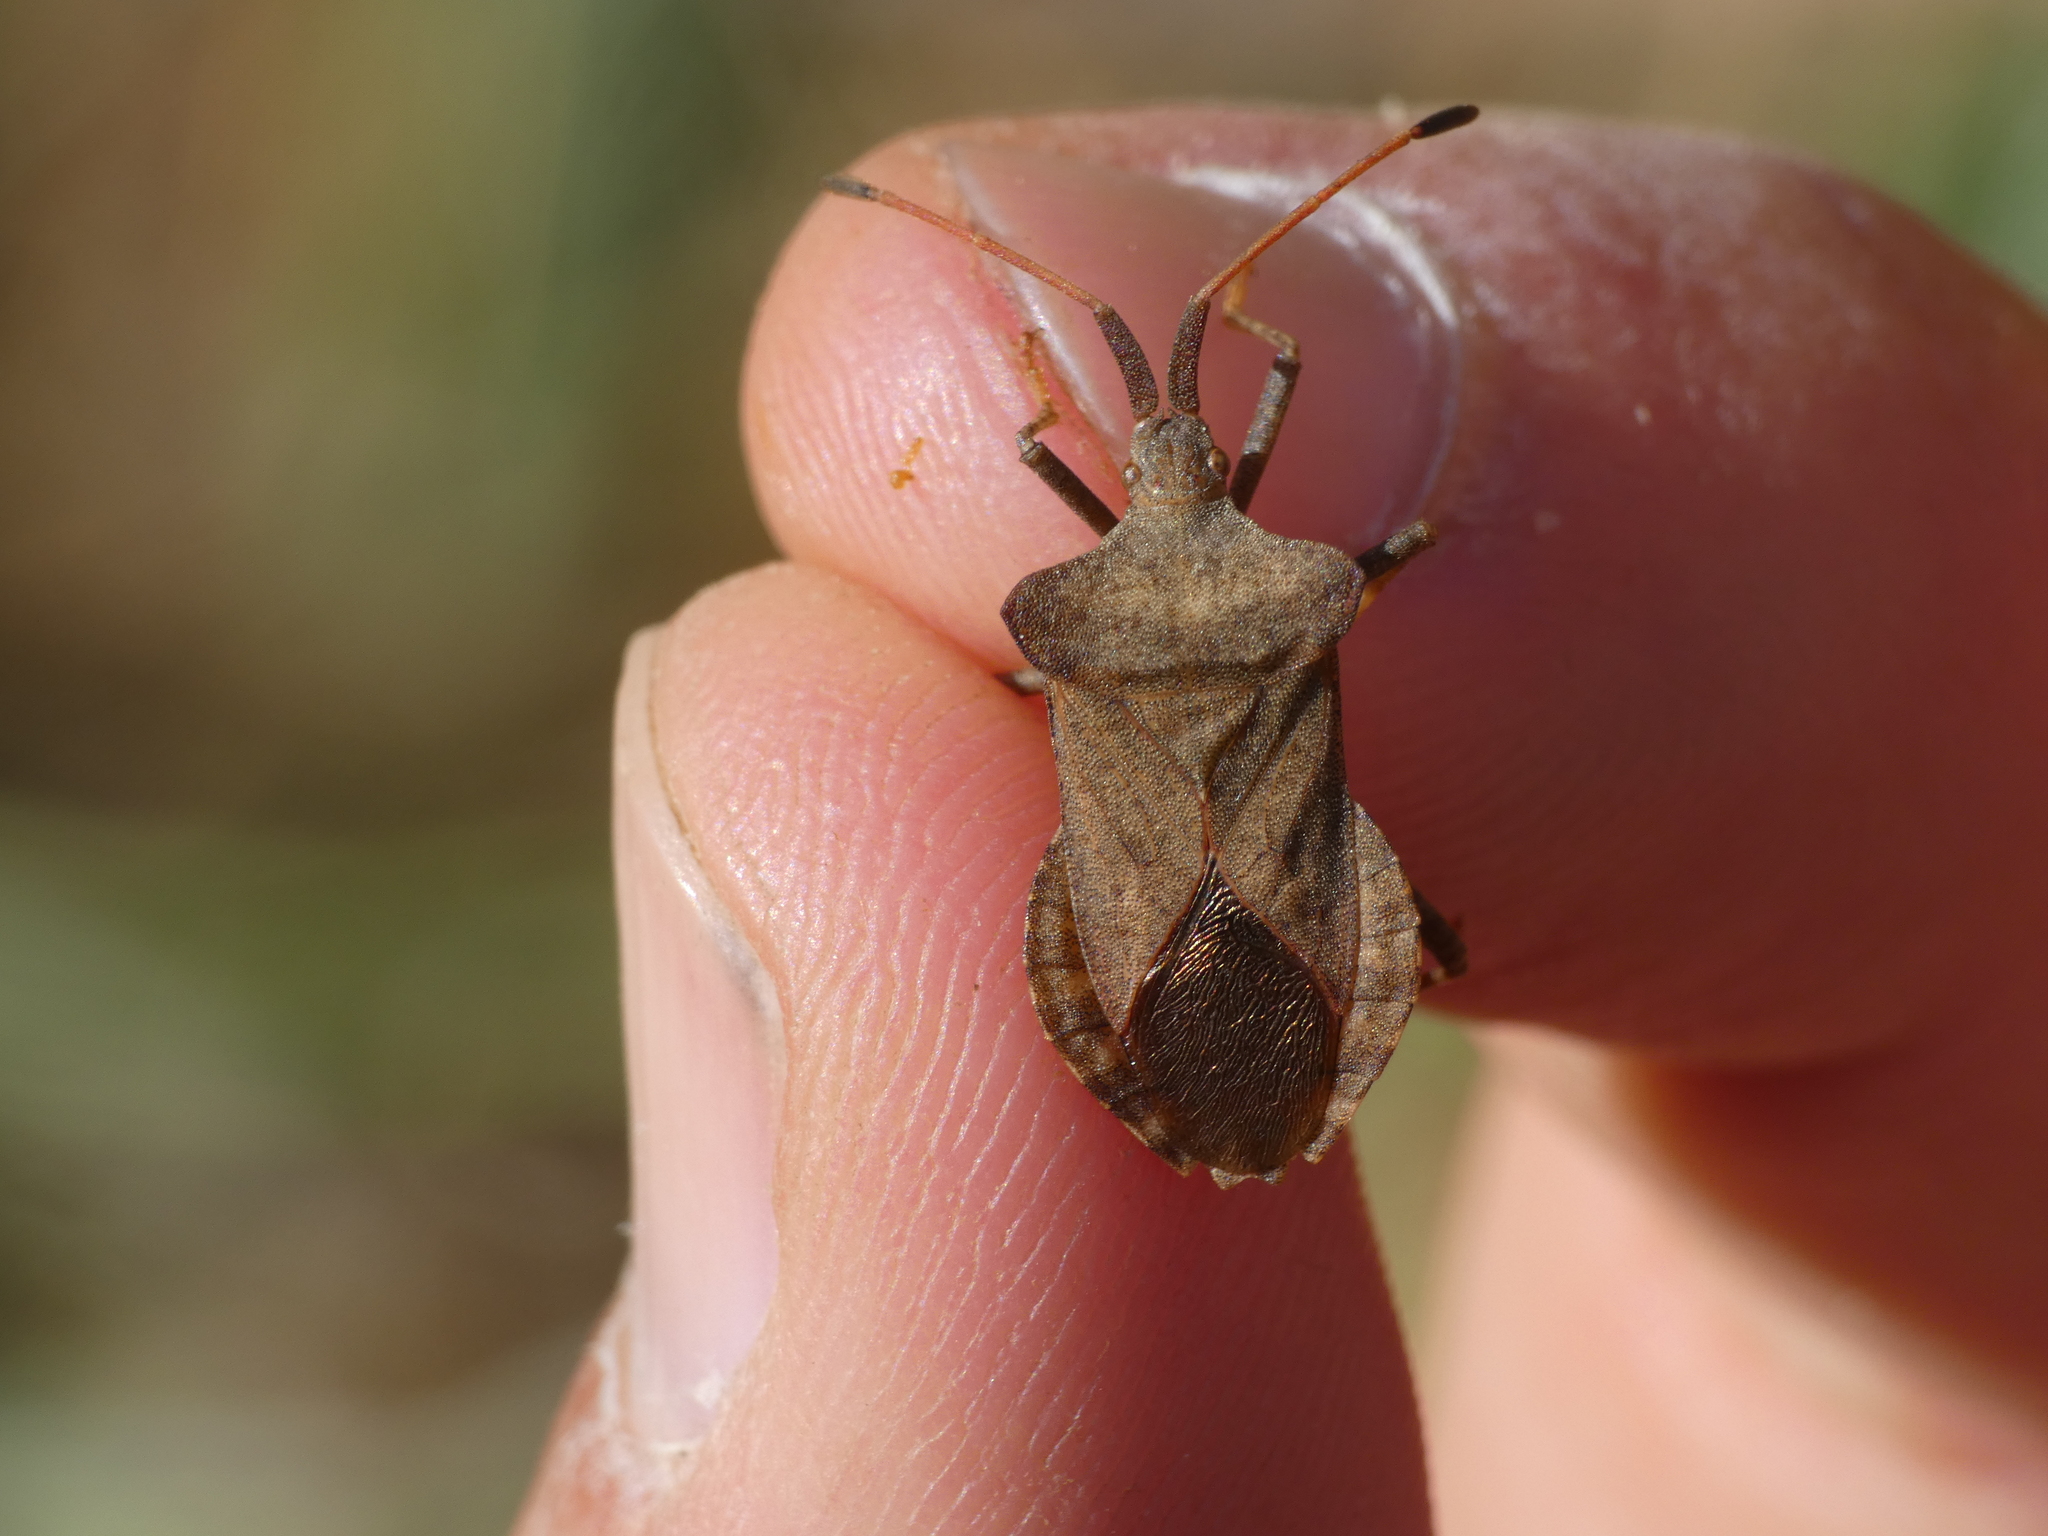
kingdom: Animalia
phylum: Arthropoda
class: Insecta
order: Hemiptera
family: Coreidae
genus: Coreus
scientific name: Coreus marginatus
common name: Dock bug
